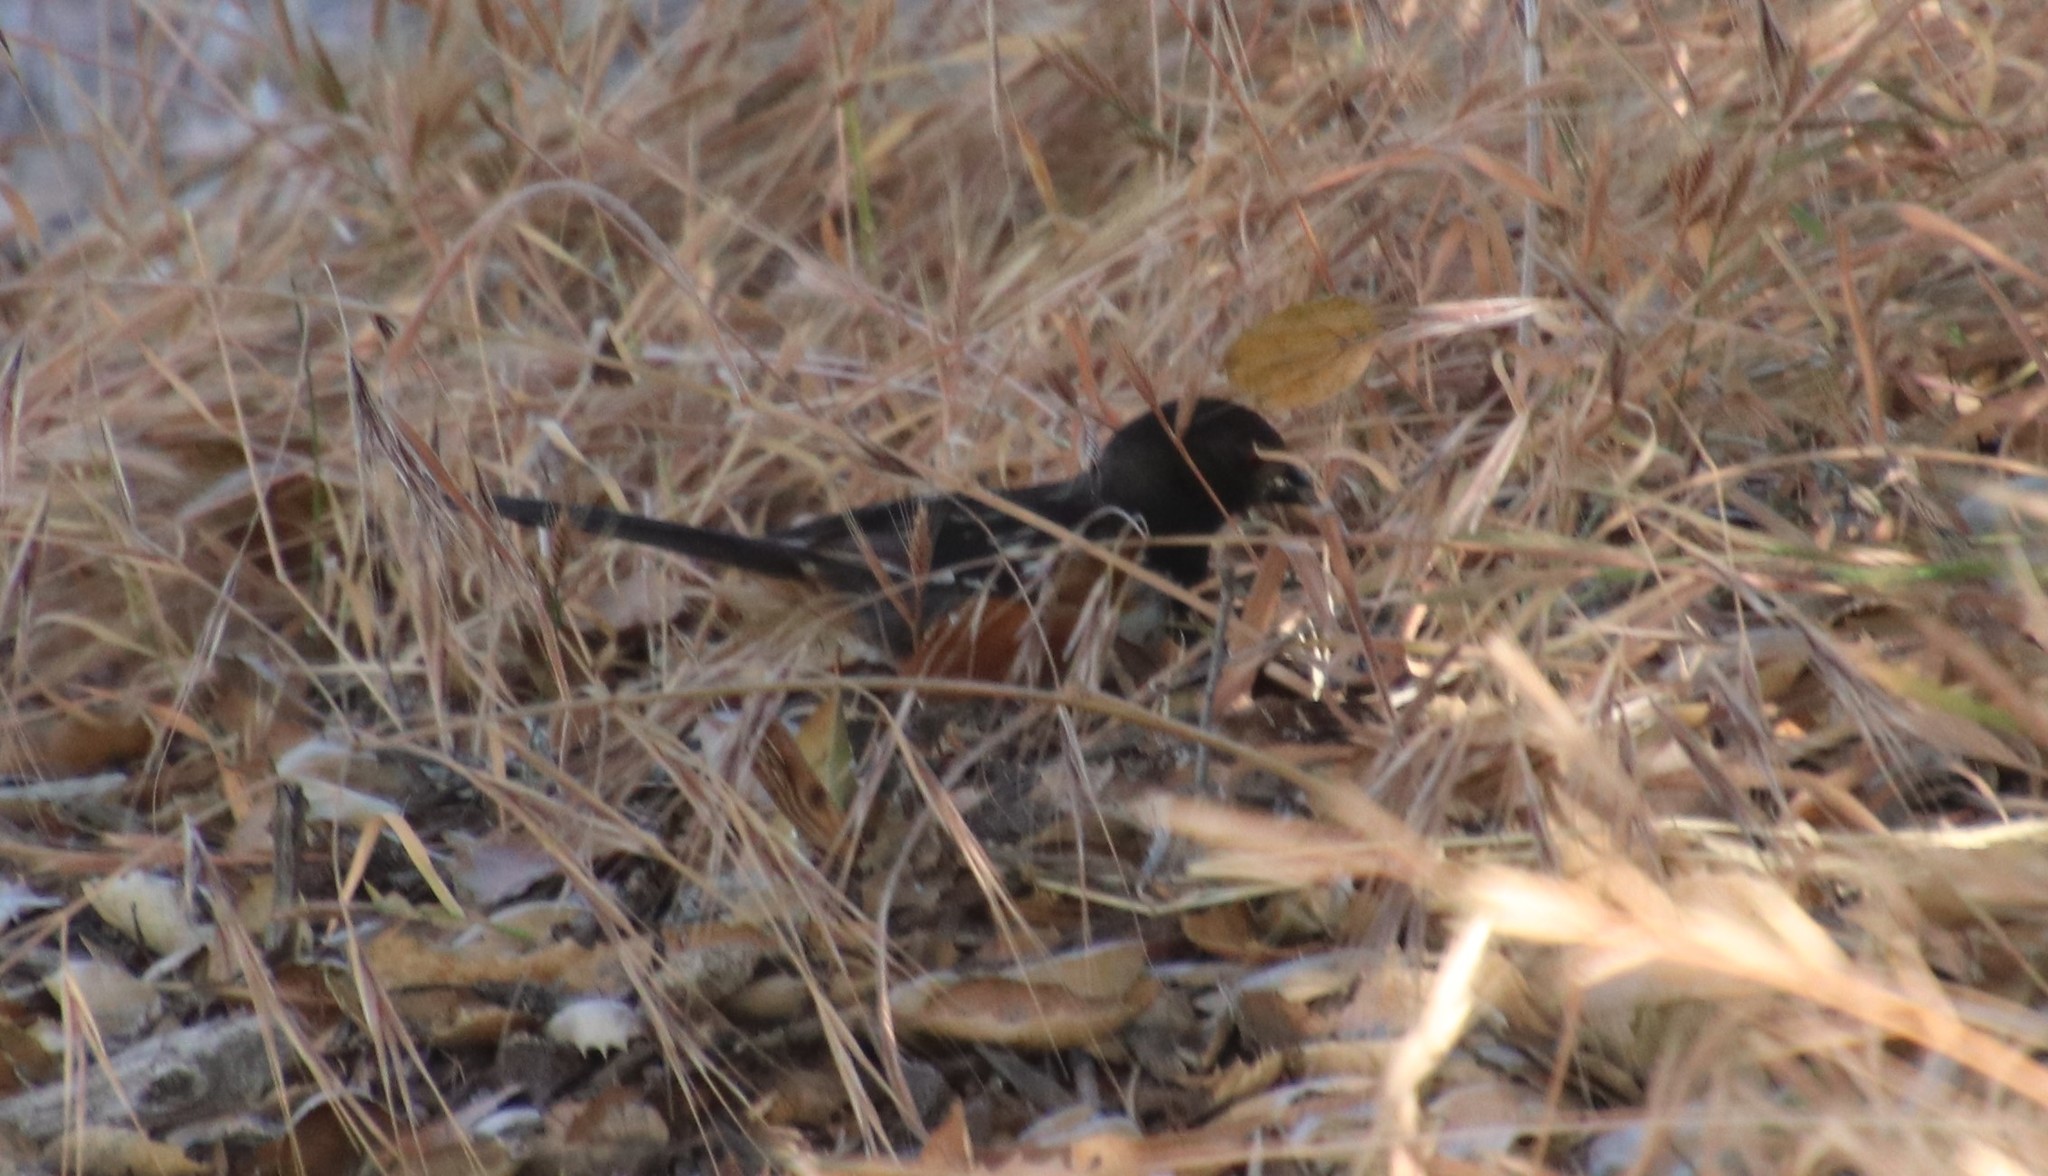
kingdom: Animalia
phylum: Chordata
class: Aves
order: Passeriformes
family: Passerellidae
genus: Pipilo
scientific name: Pipilo maculatus
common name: Spotted towhee
